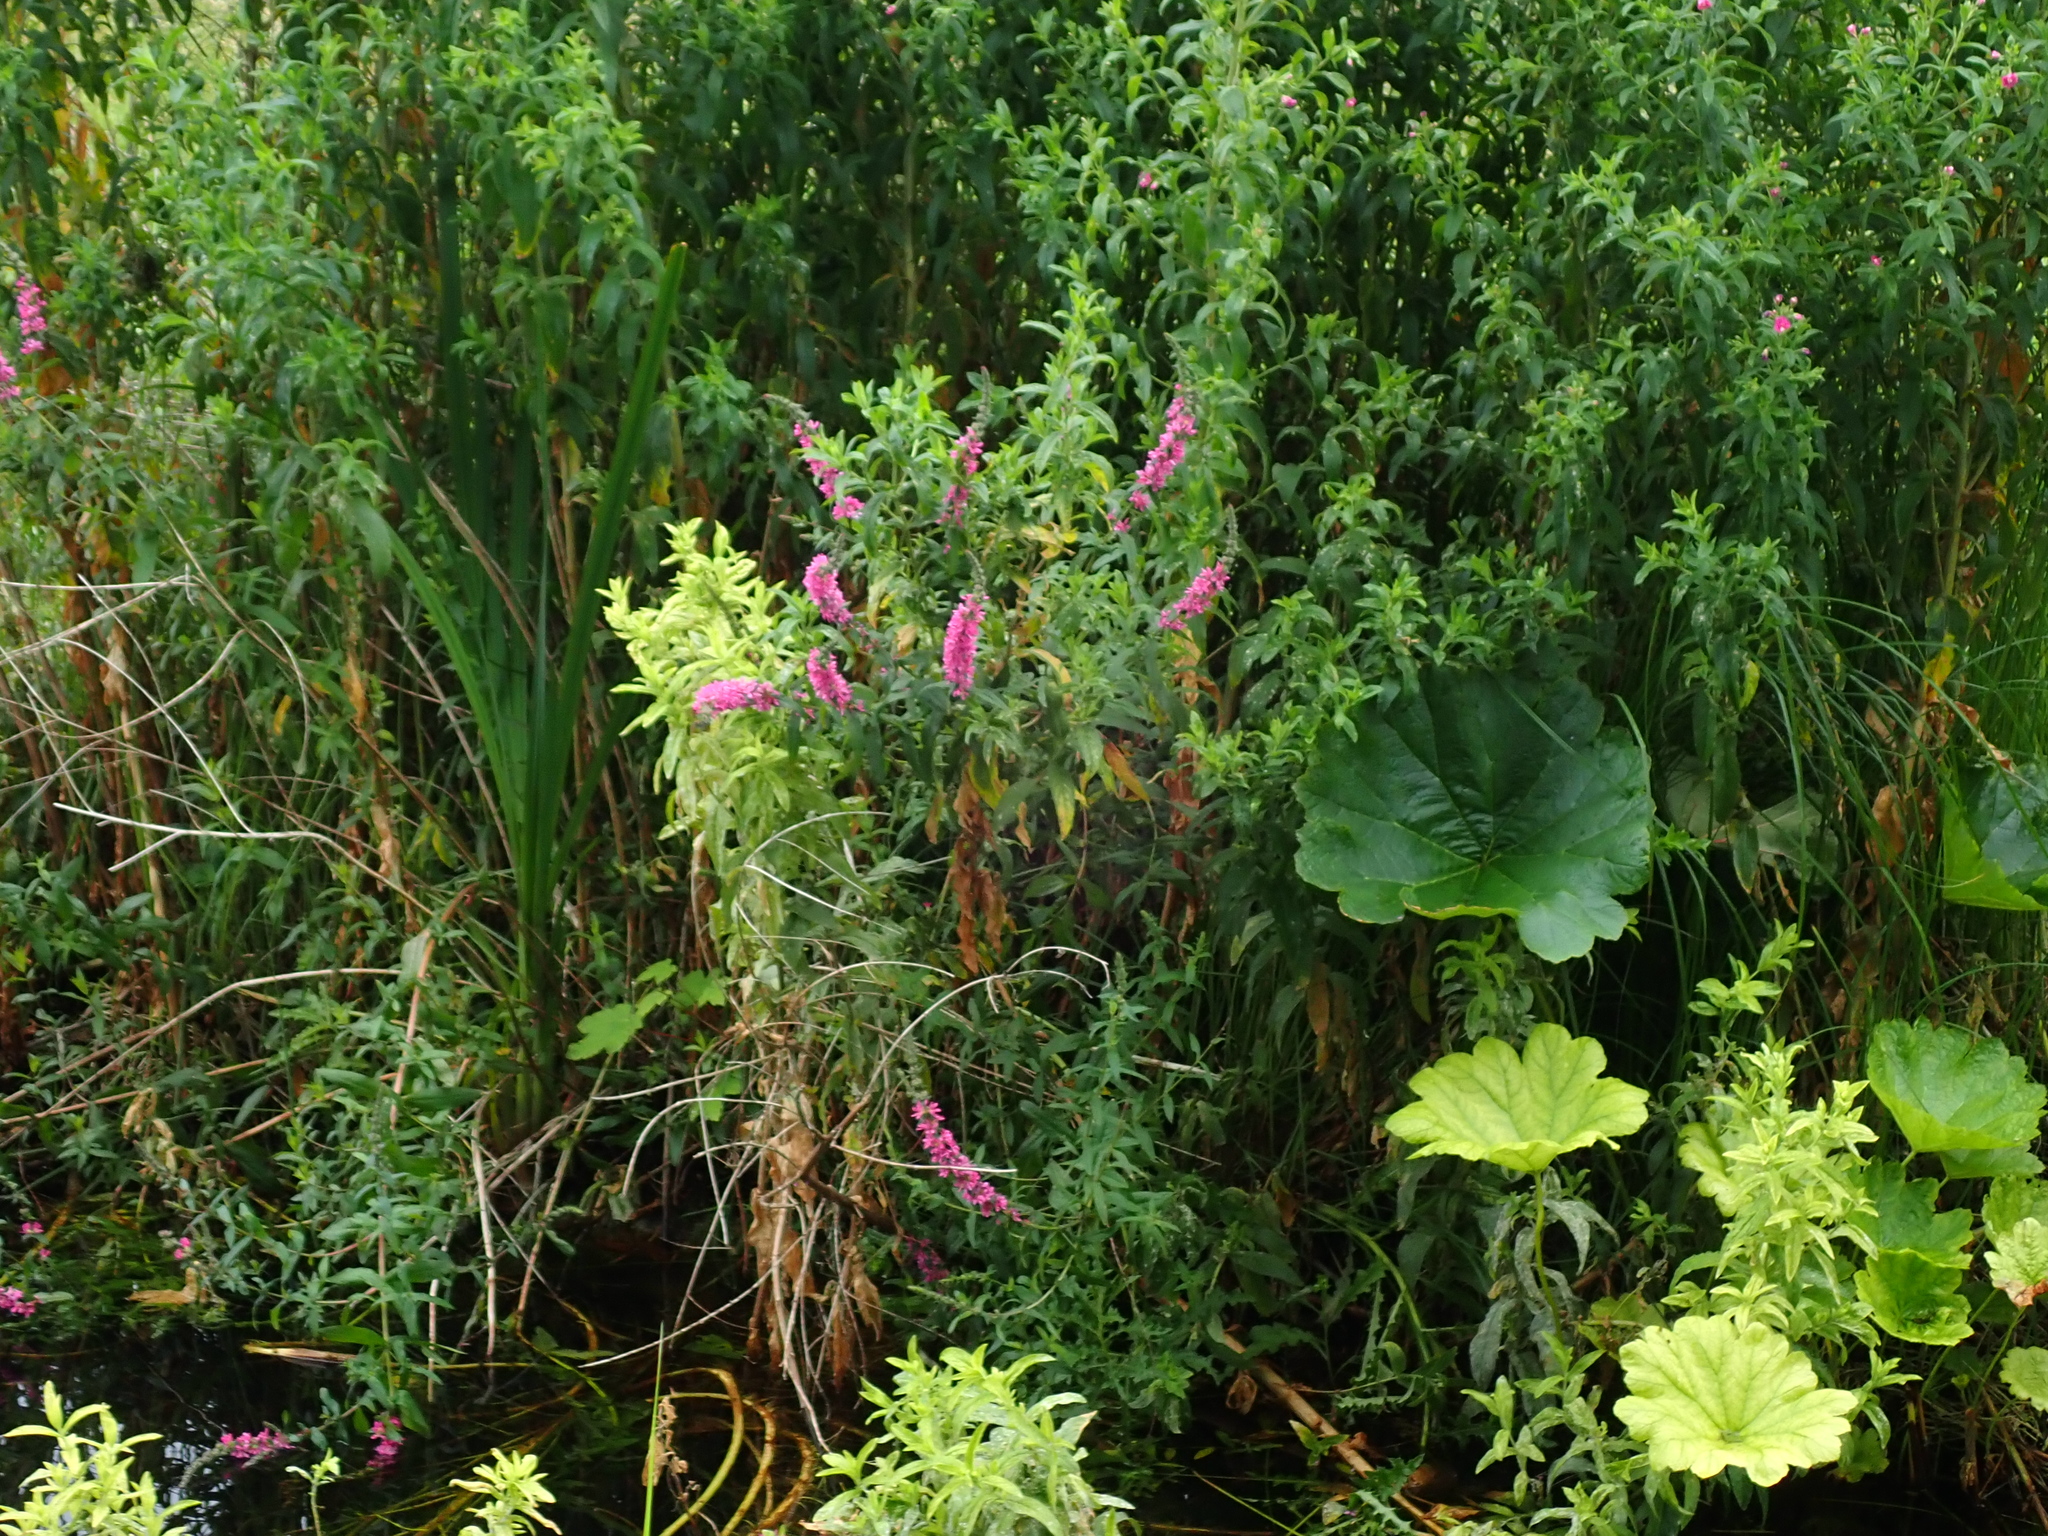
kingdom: Plantae
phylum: Tracheophyta
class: Magnoliopsida
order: Myrtales
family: Lythraceae
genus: Lythrum
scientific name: Lythrum salicaria
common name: Purple loosestrife
